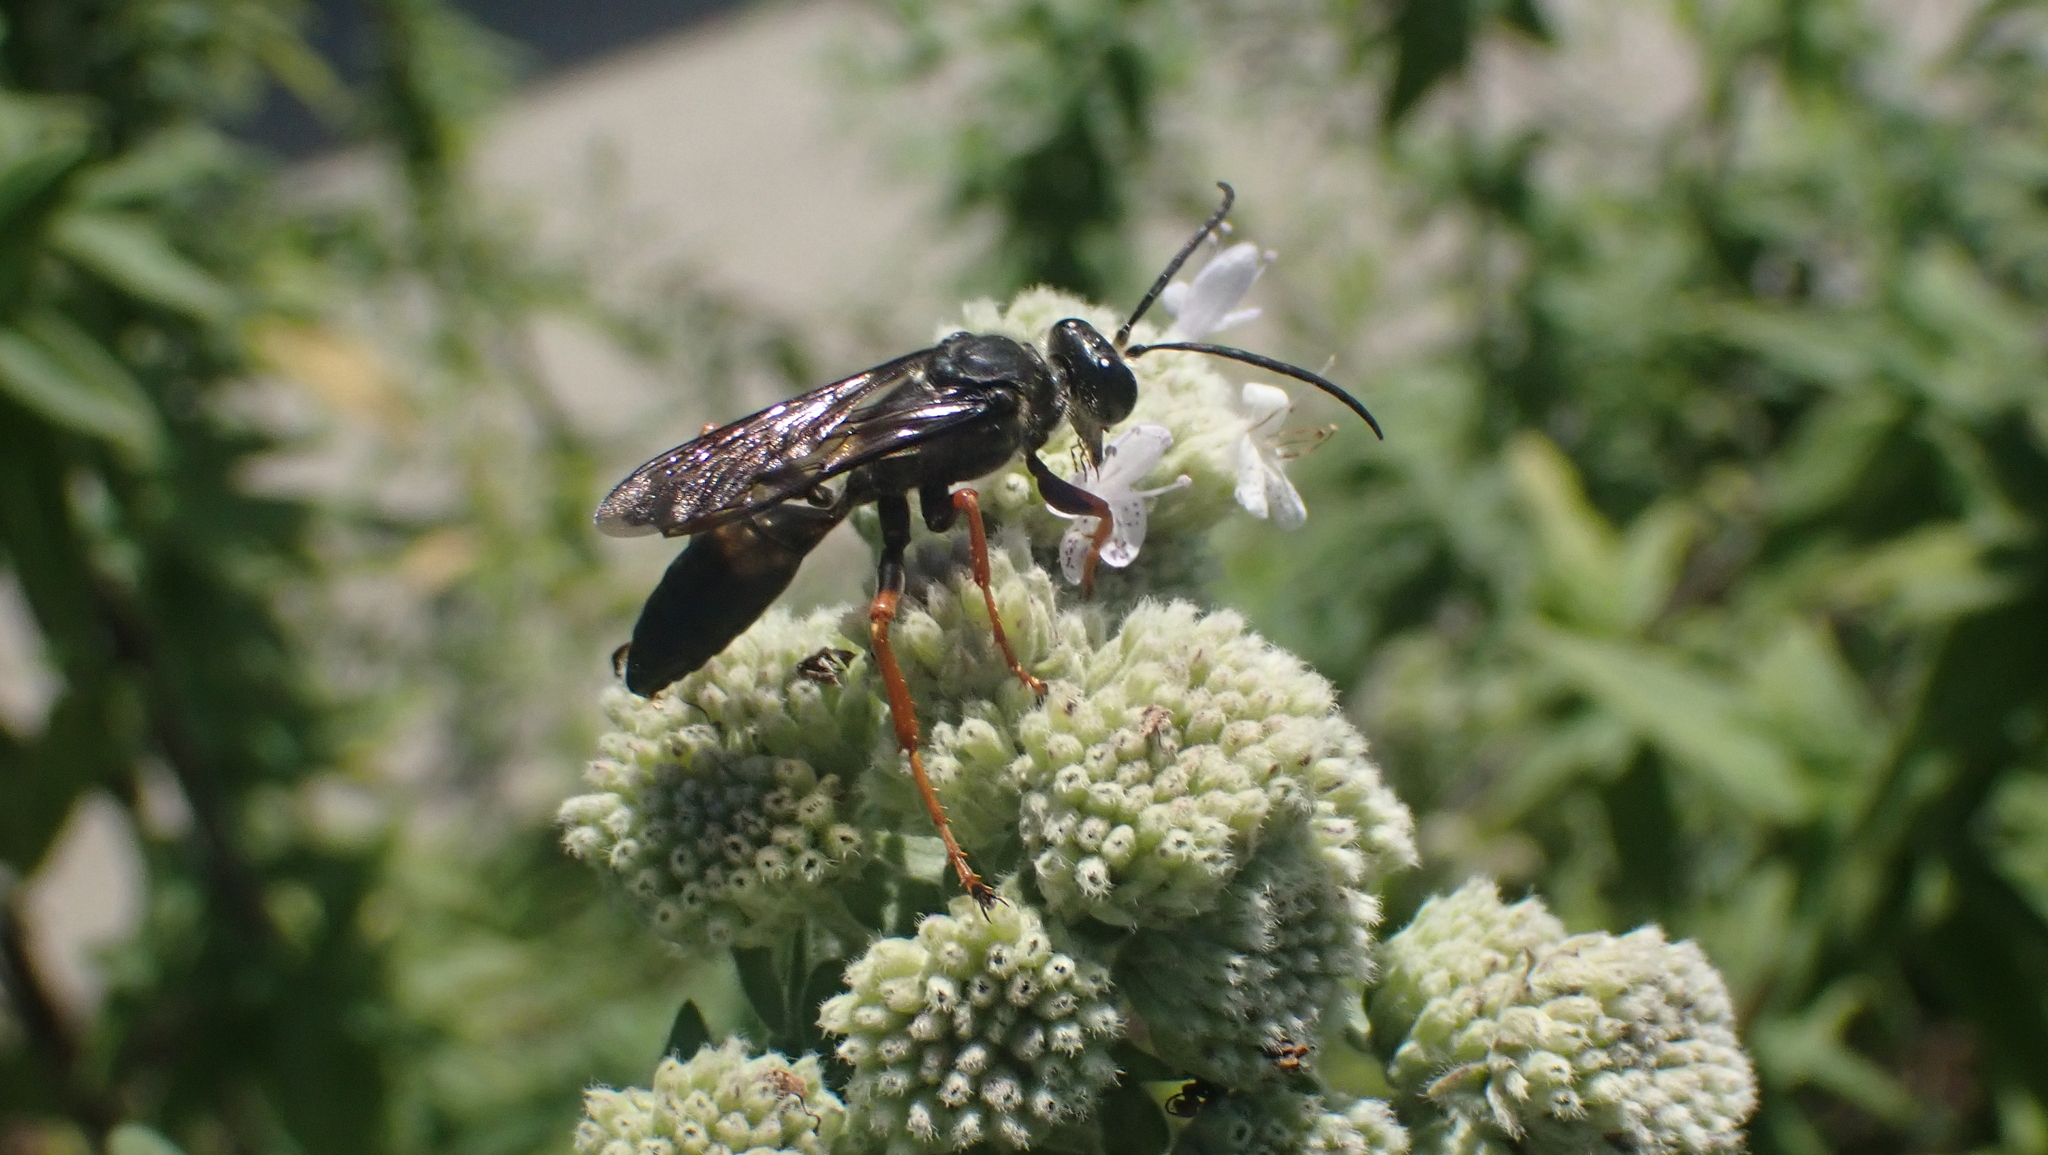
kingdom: Animalia
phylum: Arthropoda
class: Insecta
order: Hymenoptera
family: Sphecidae
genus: Sphex
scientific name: Sphex nudus
